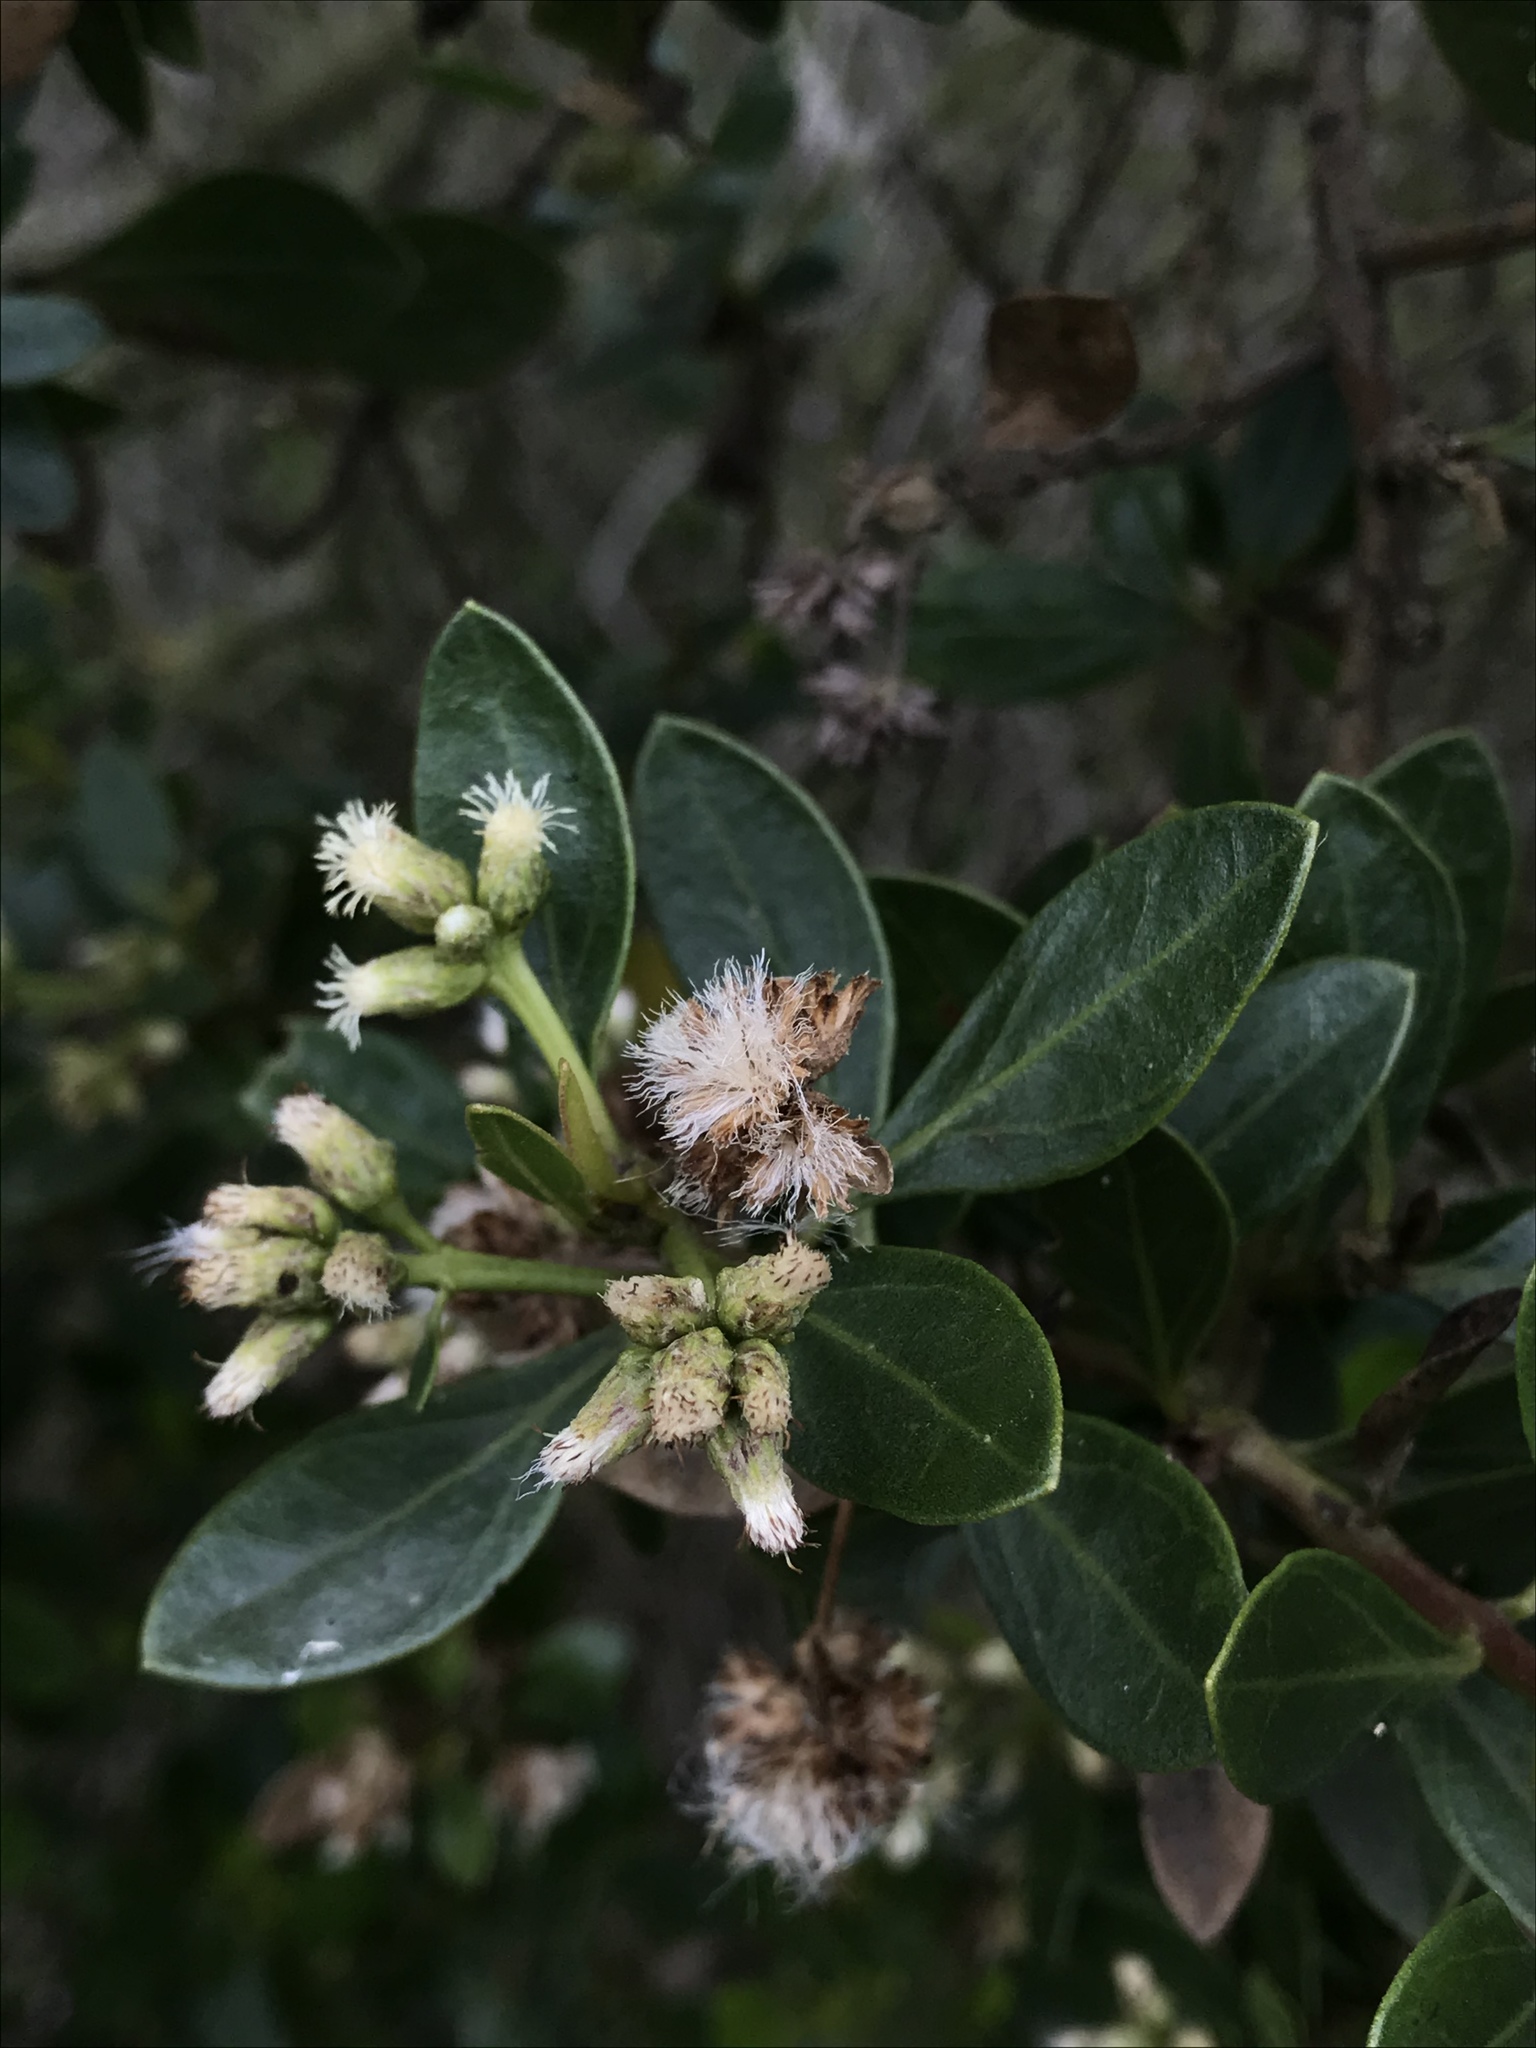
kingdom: Plantae
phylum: Tracheophyta
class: Magnoliopsida
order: Asterales
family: Asteraceae
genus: Baccharis
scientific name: Baccharis macrantha
